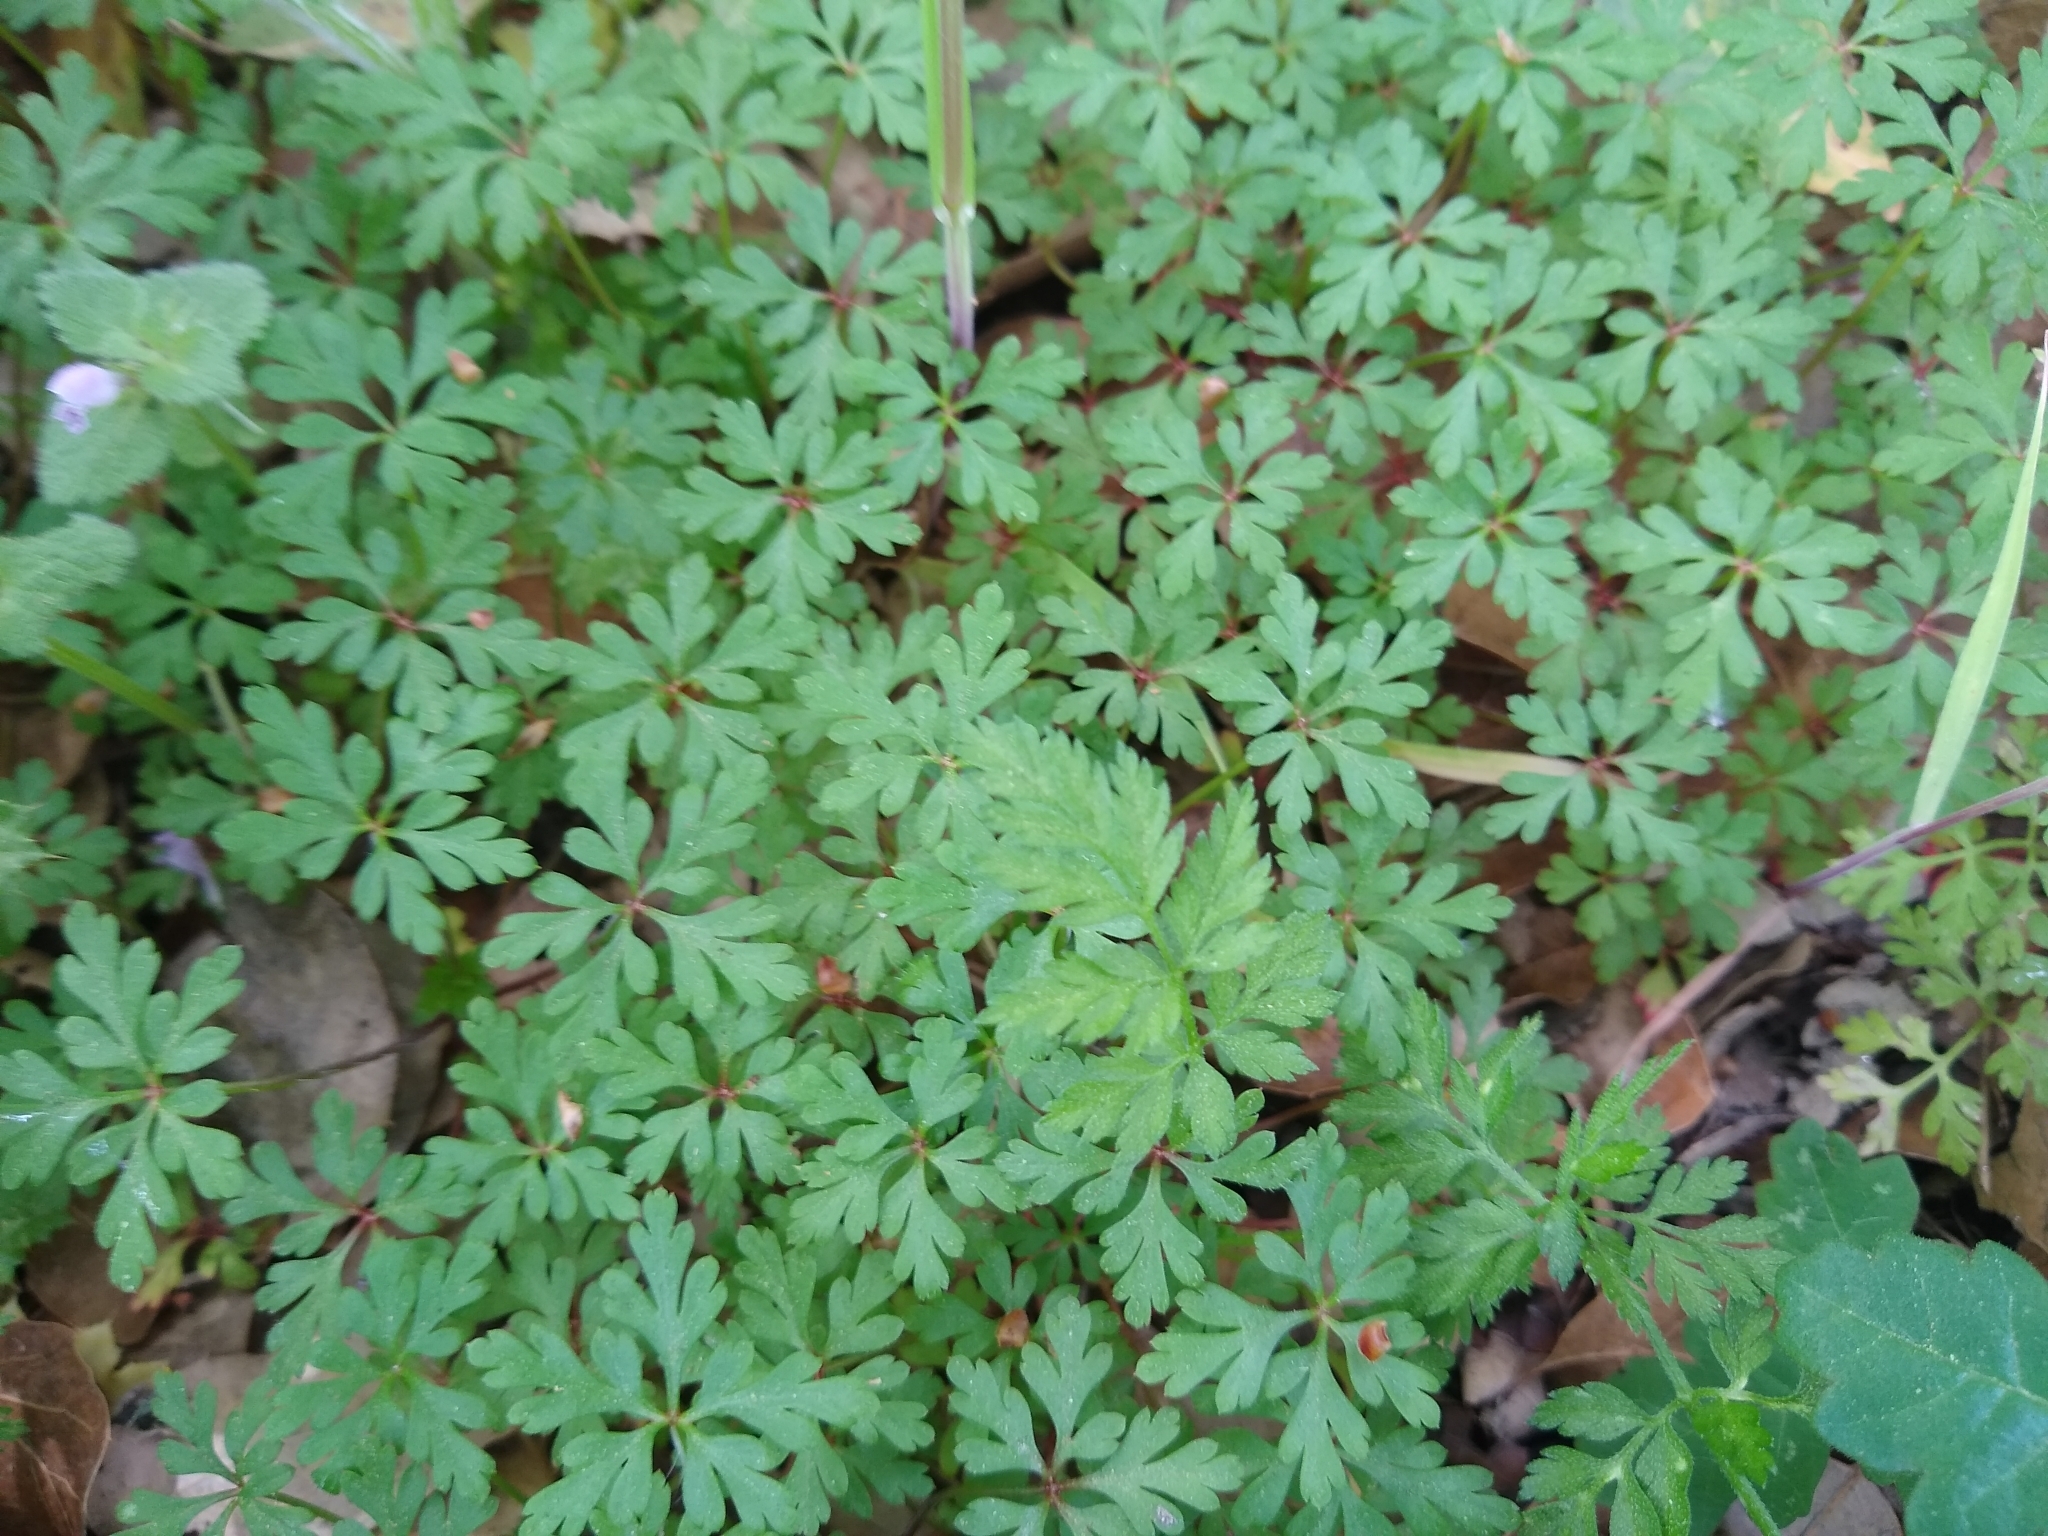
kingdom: Plantae
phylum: Tracheophyta
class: Magnoliopsida
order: Geraniales
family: Geraniaceae
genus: Geranium
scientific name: Geranium
